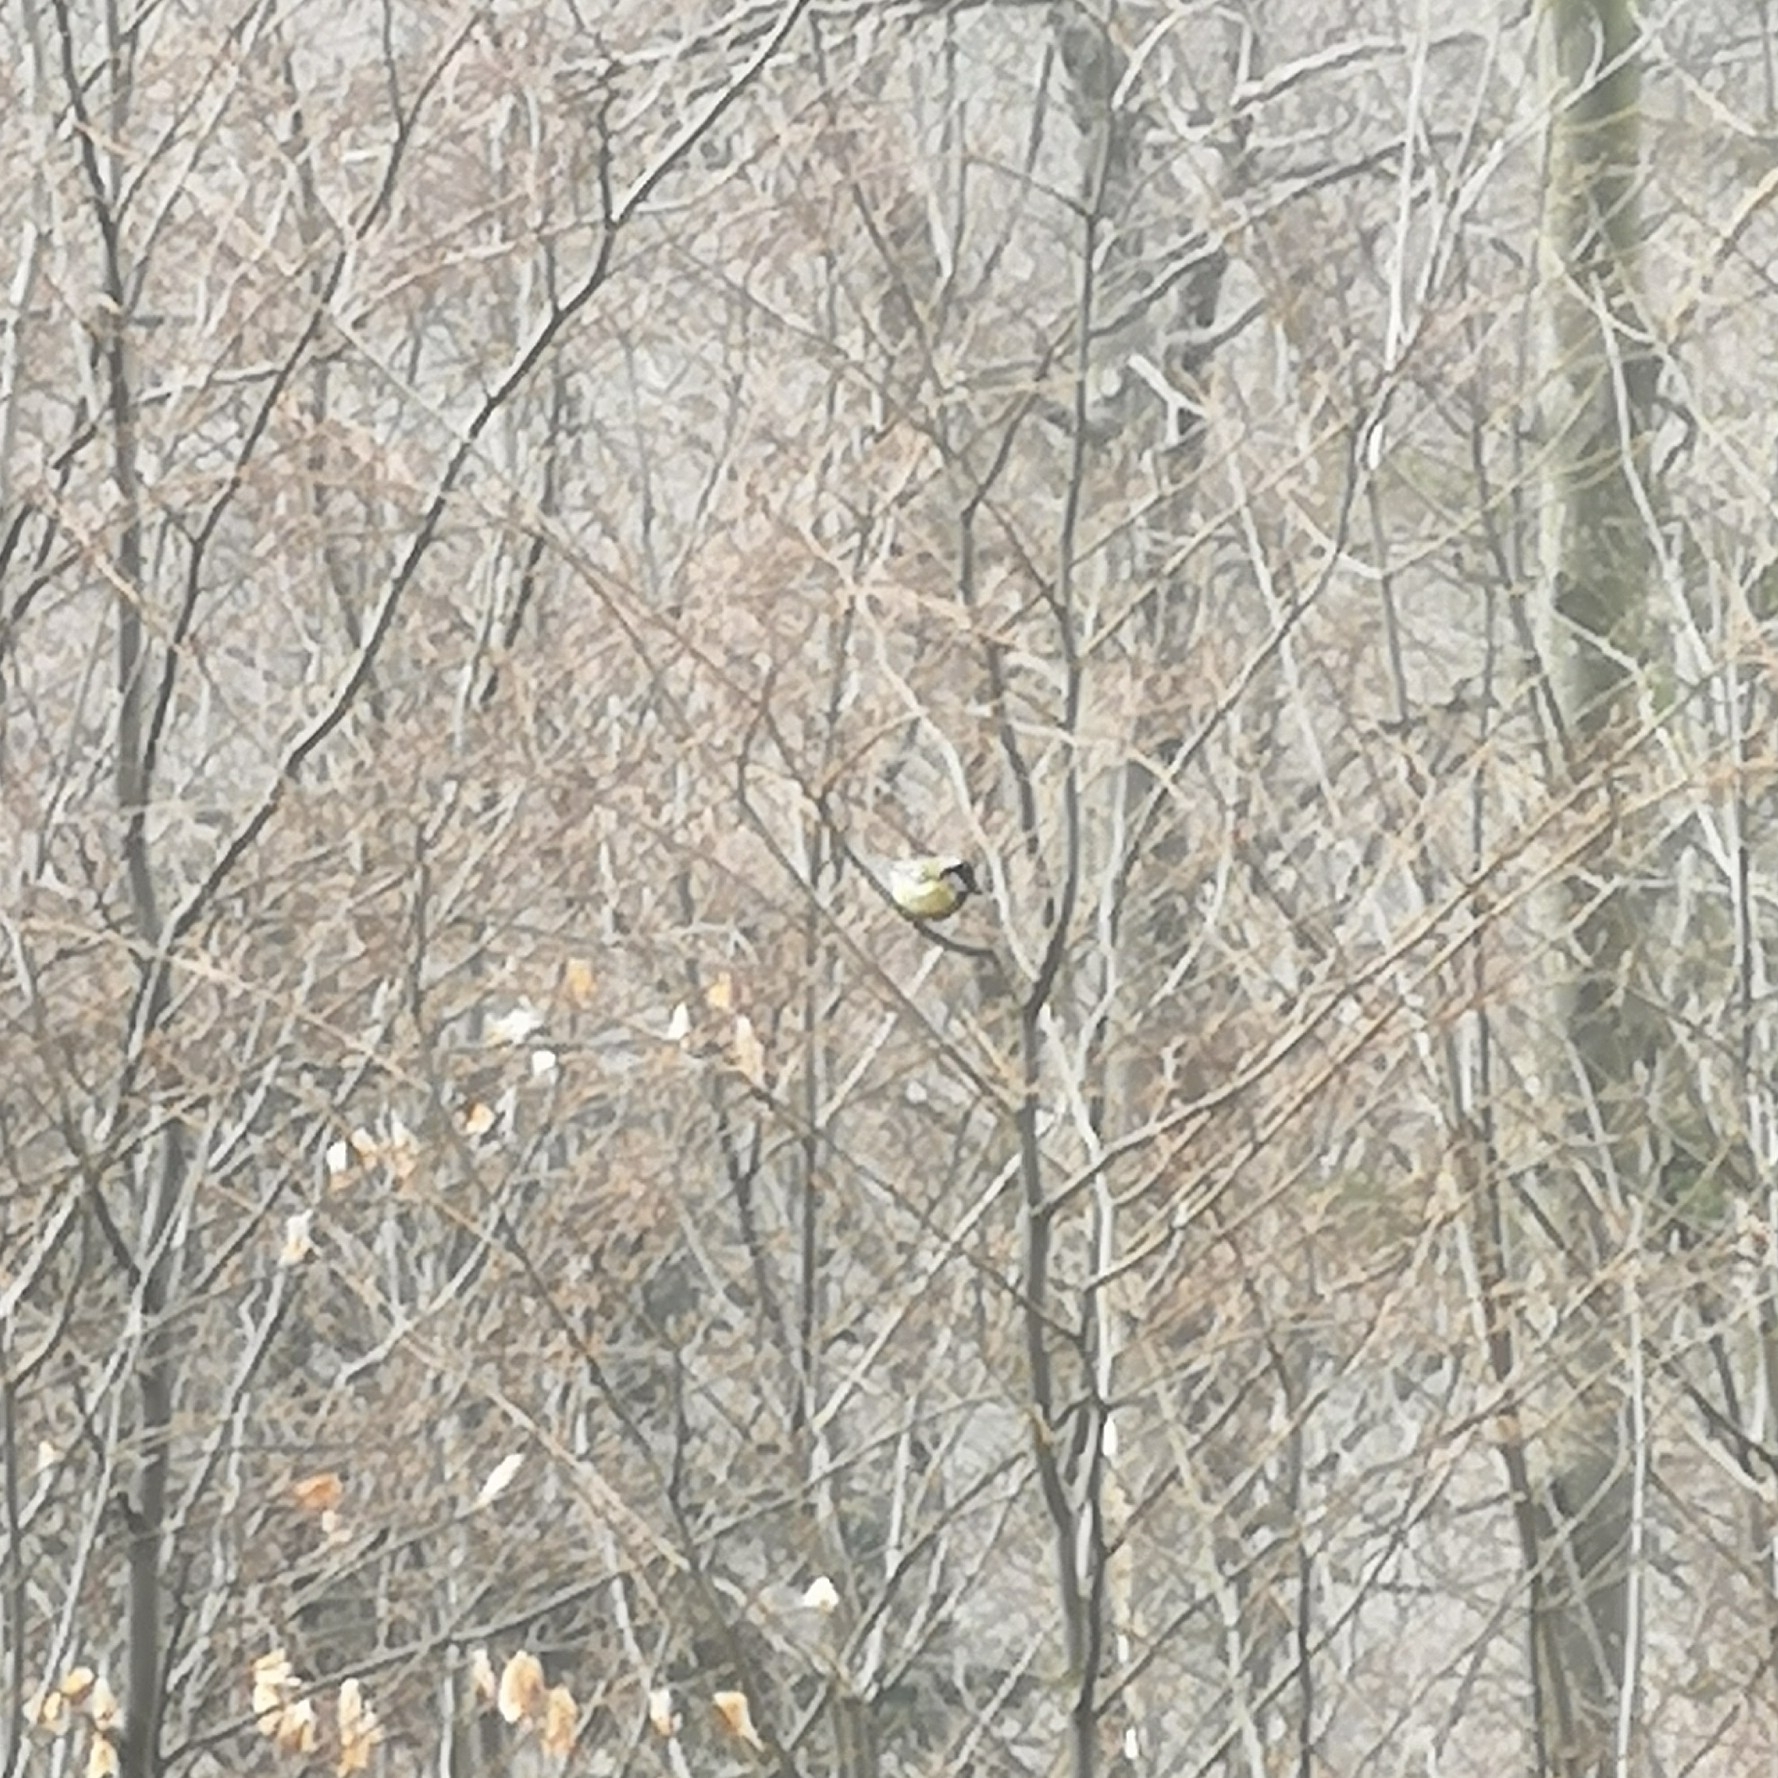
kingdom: Animalia
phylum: Chordata
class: Aves
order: Passeriformes
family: Paridae
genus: Parus
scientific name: Parus major
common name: Great tit
